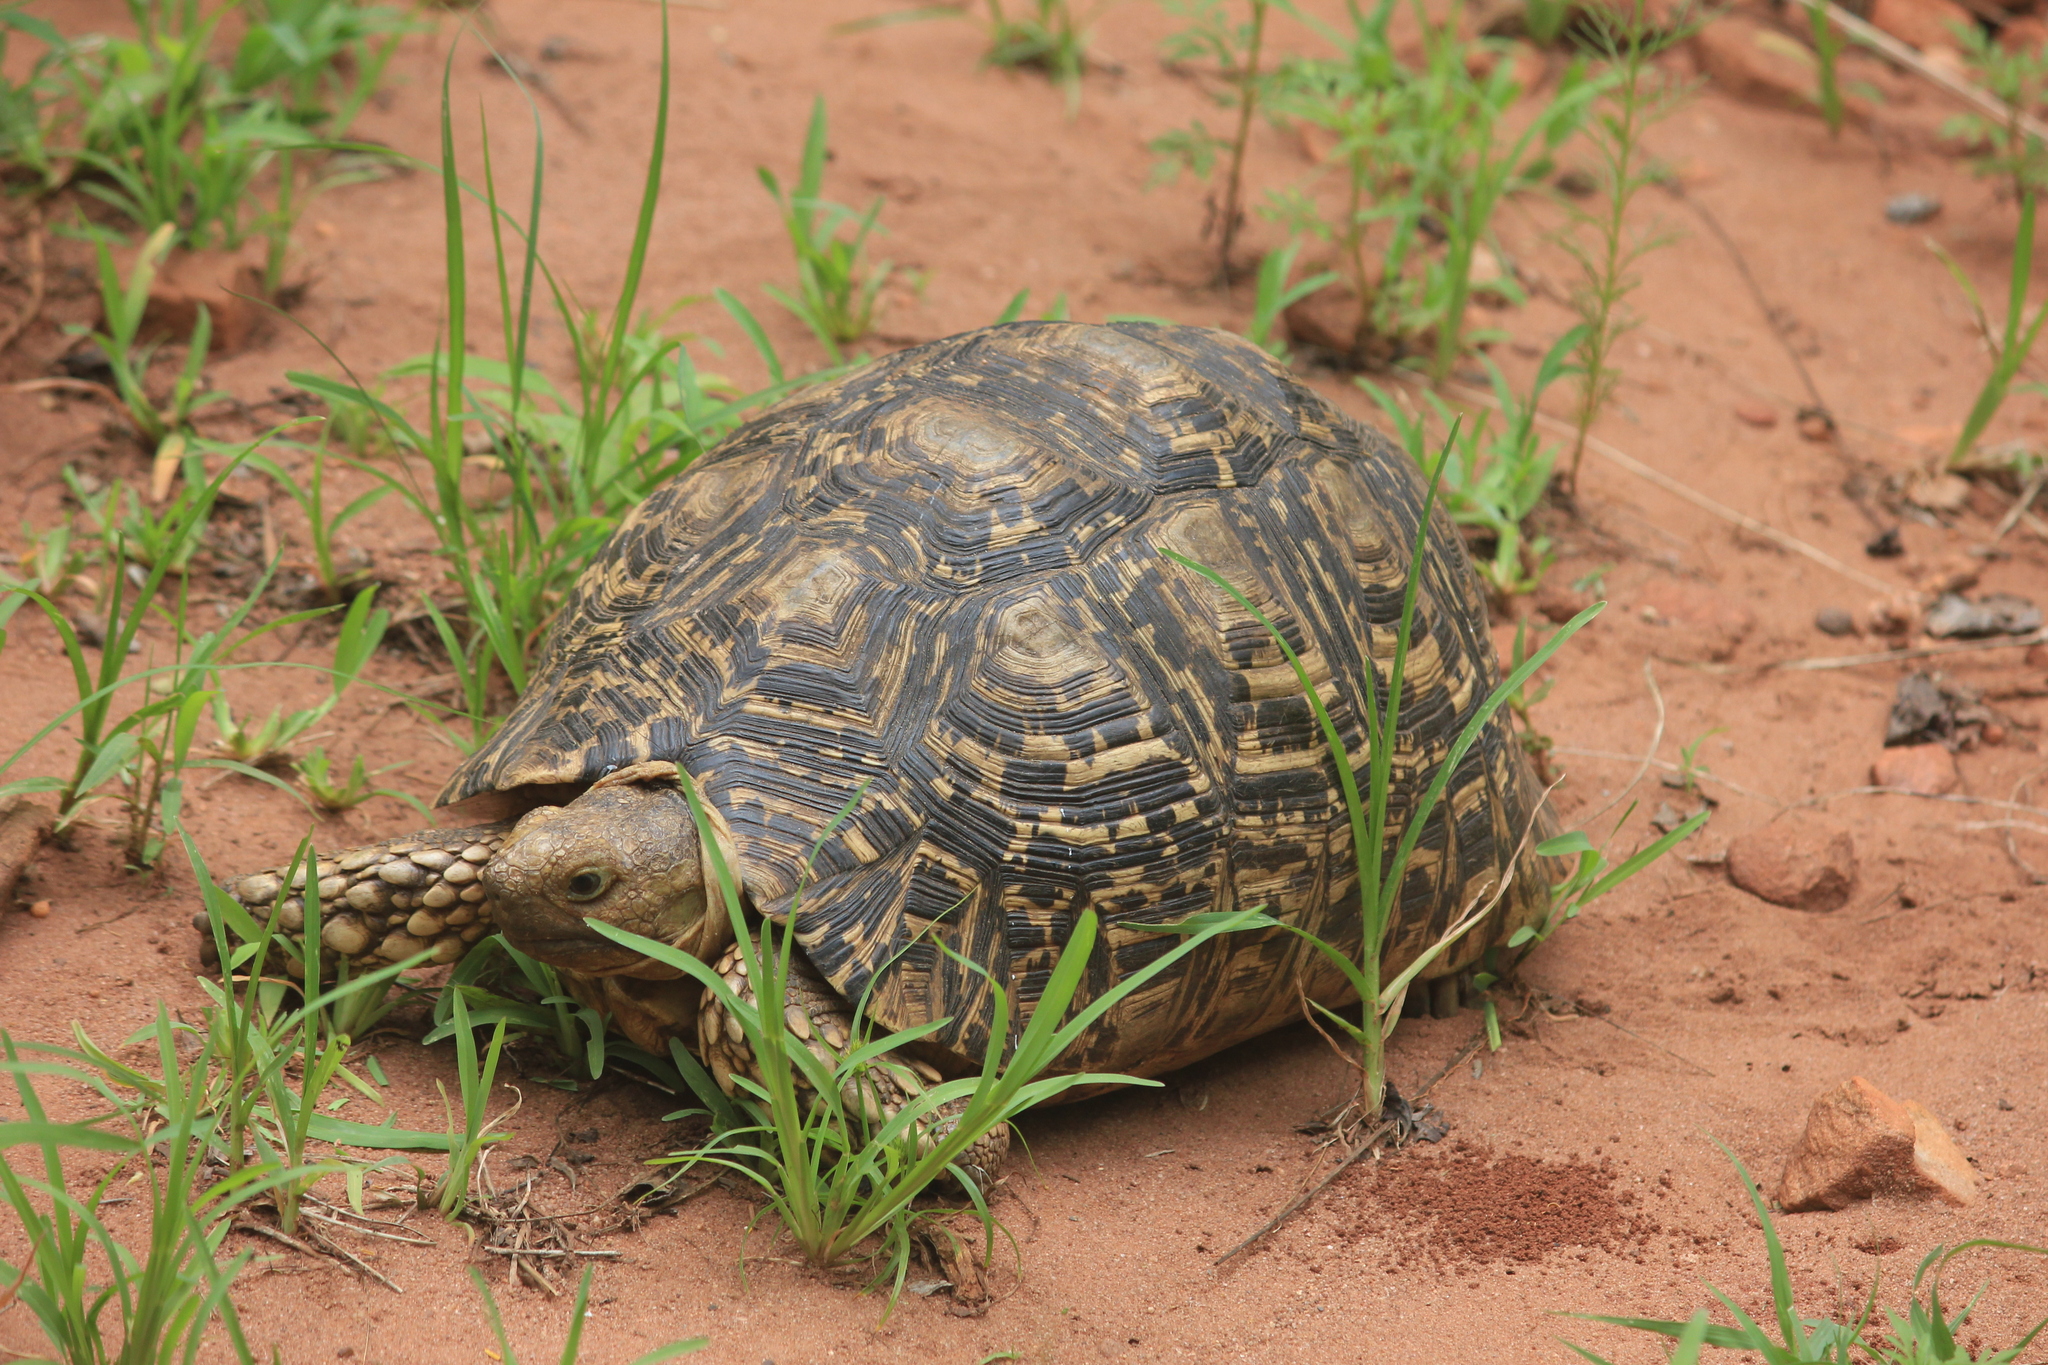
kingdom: Animalia
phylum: Chordata
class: Testudines
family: Testudinidae
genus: Stigmochelys
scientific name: Stigmochelys pardalis
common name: Leopard tortoise
